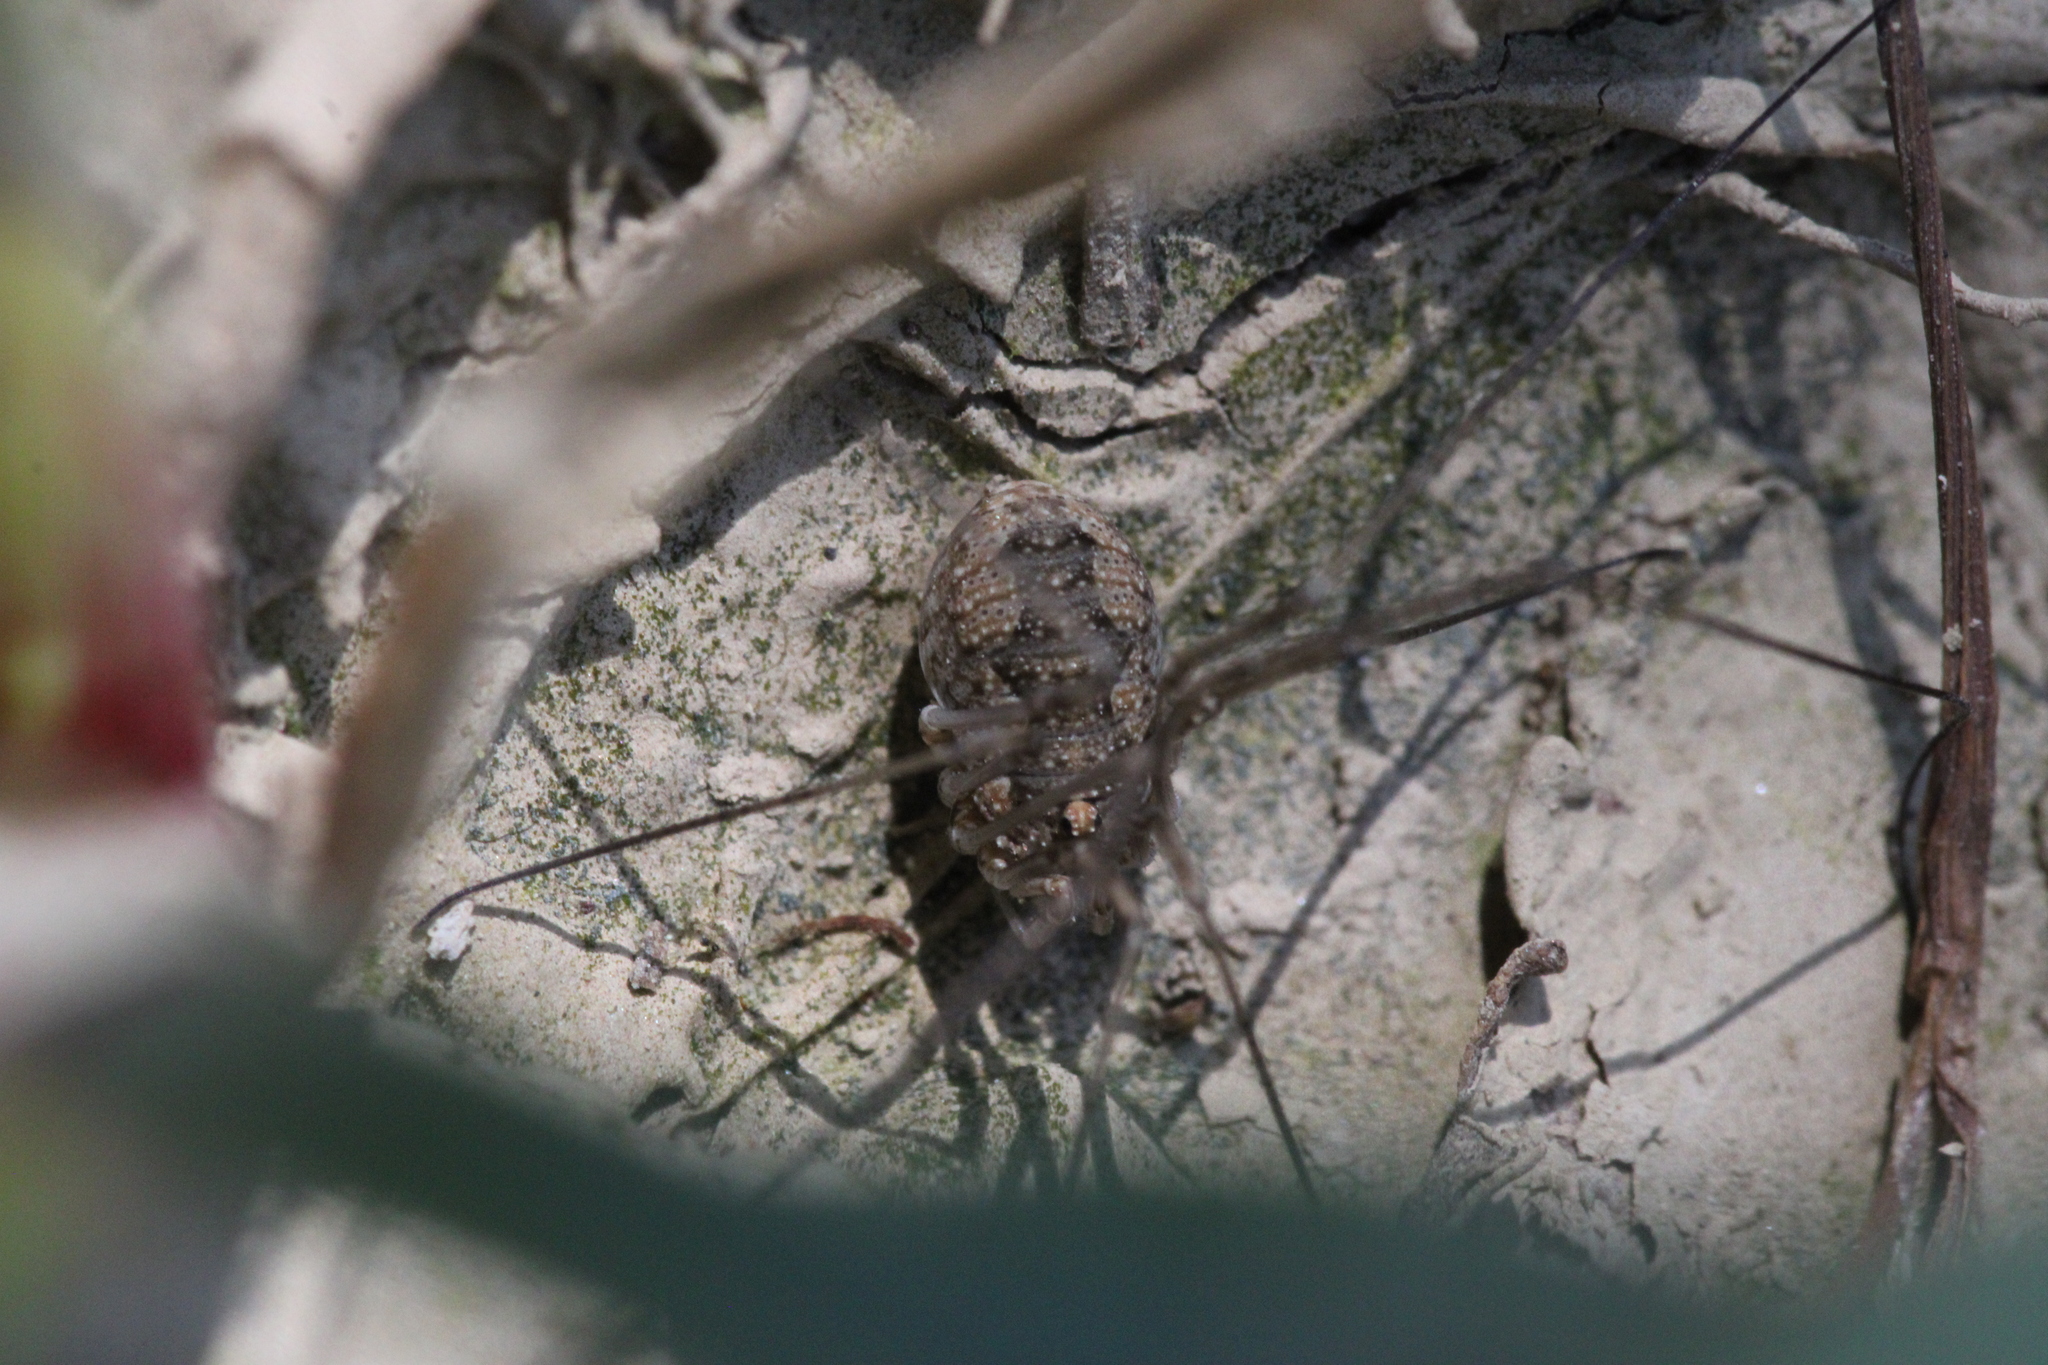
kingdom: Animalia
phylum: Arthropoda
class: Arachnida
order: Opiliones
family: Phalangiidae
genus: Phalangium
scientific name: Phalangium opilio
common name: Daddy longleg
